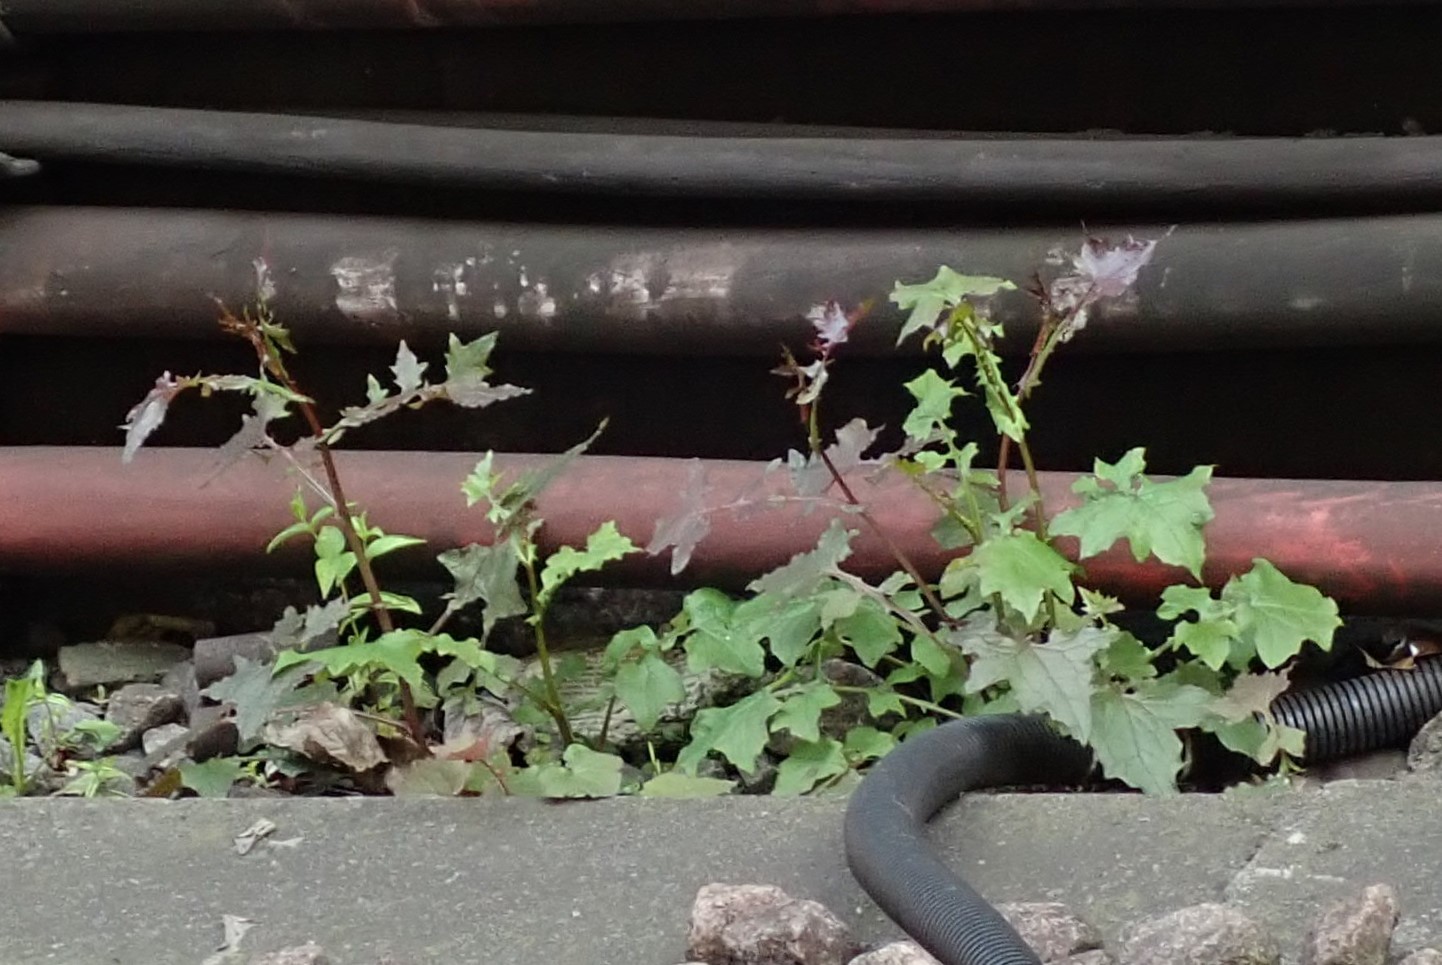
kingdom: Plantae
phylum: Tracheophyta
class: Magnoliopsida
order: Asterales
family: Asteraceae
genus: Mycelis
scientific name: Mycelis muralis
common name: Wall lettuce
